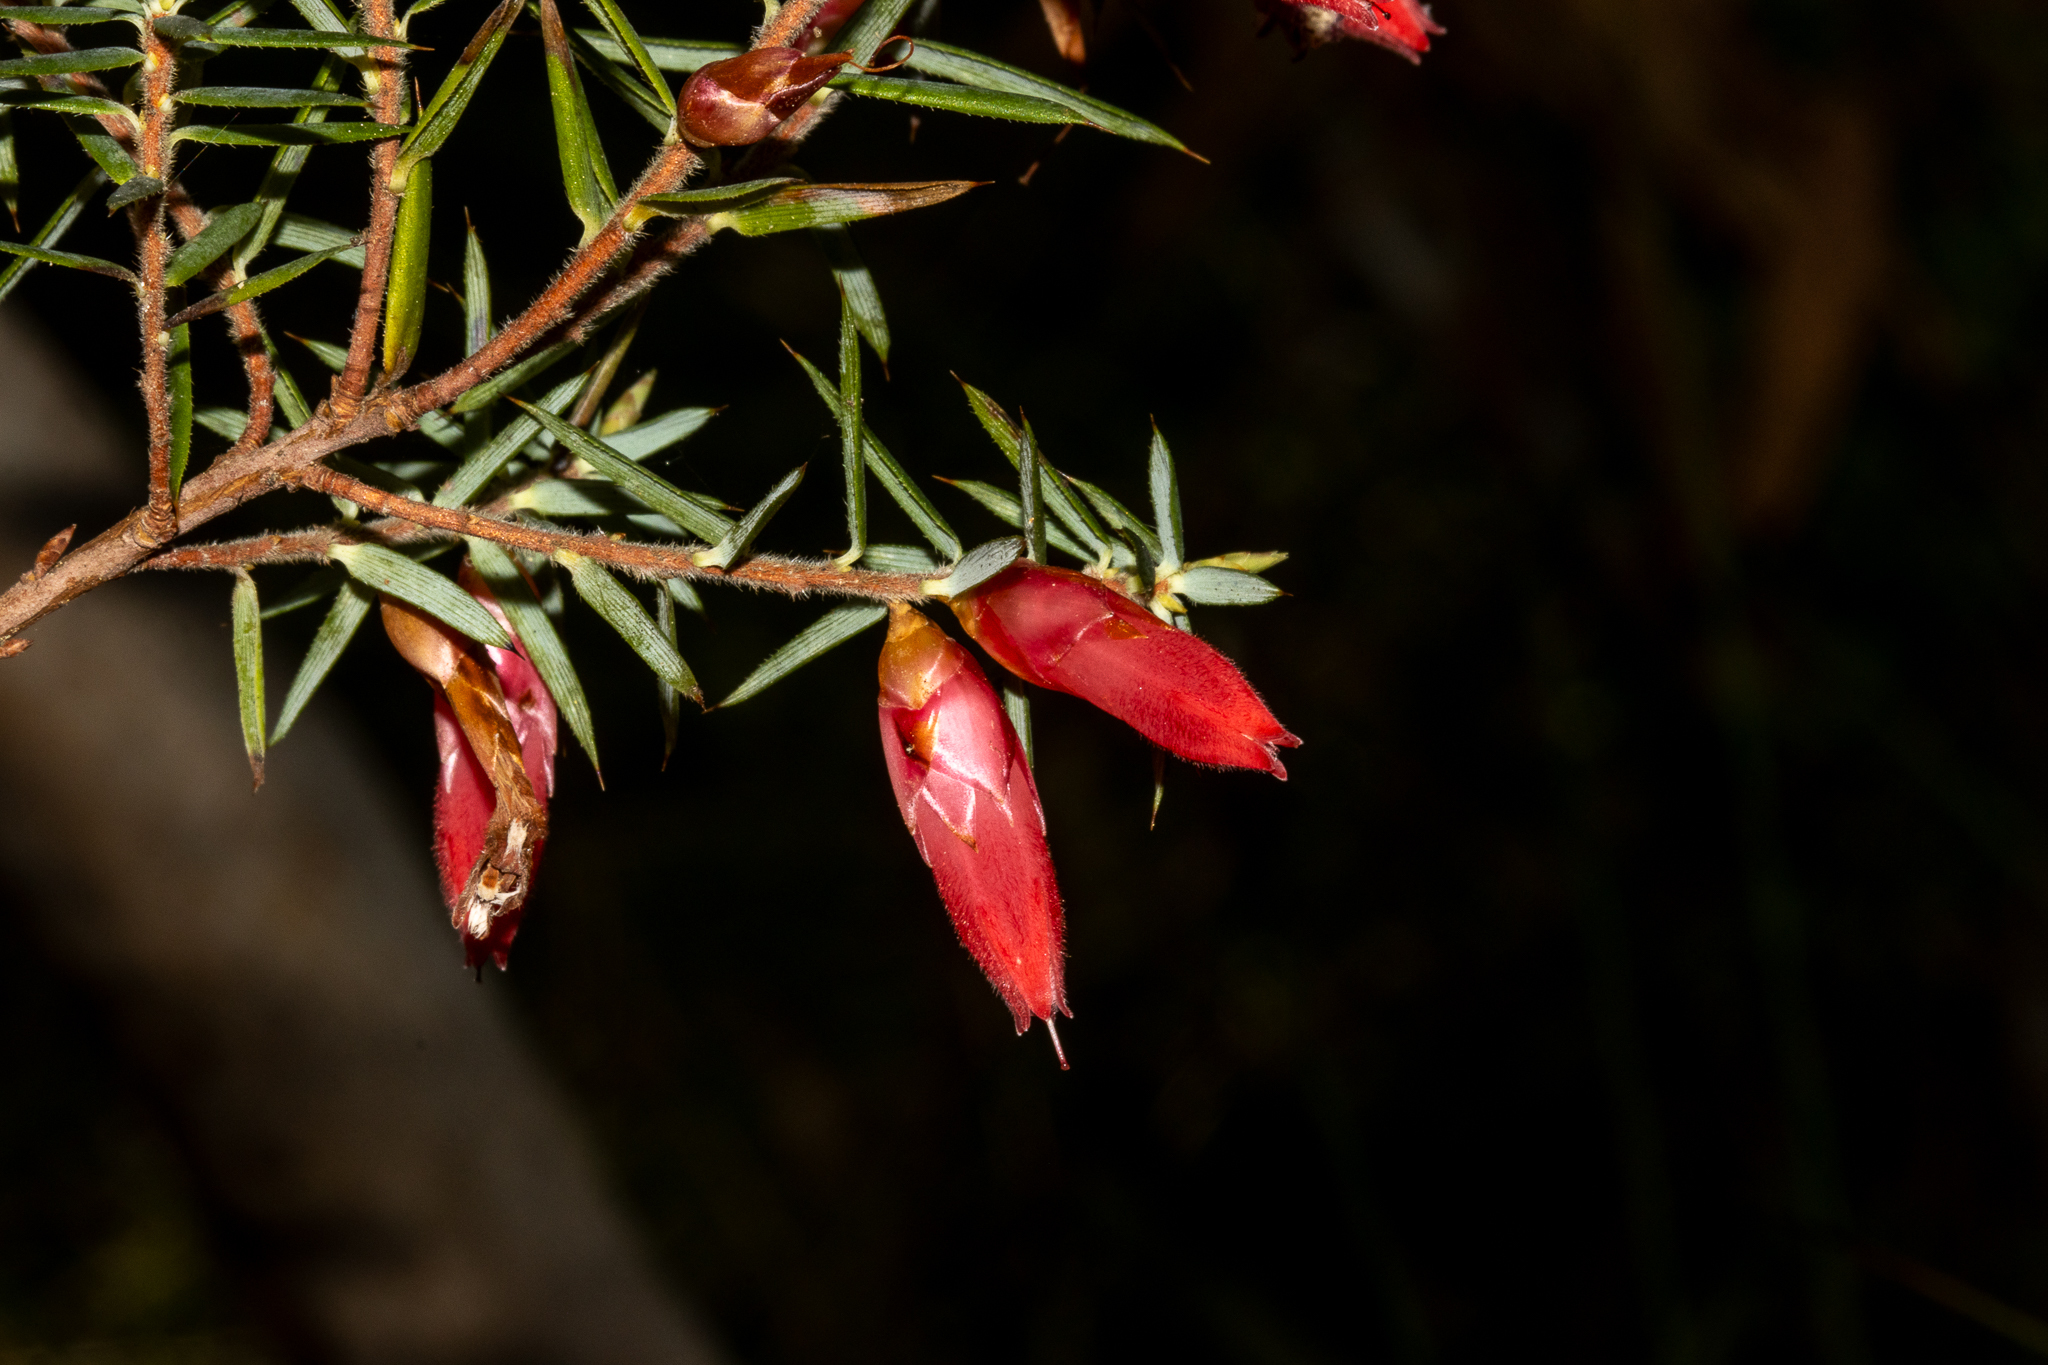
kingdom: Plantae
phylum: Tracheophyta
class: Magnoliopsida
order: Ericales
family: Ericaceae
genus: Stenanthera
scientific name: Stenanthera conostephioides
